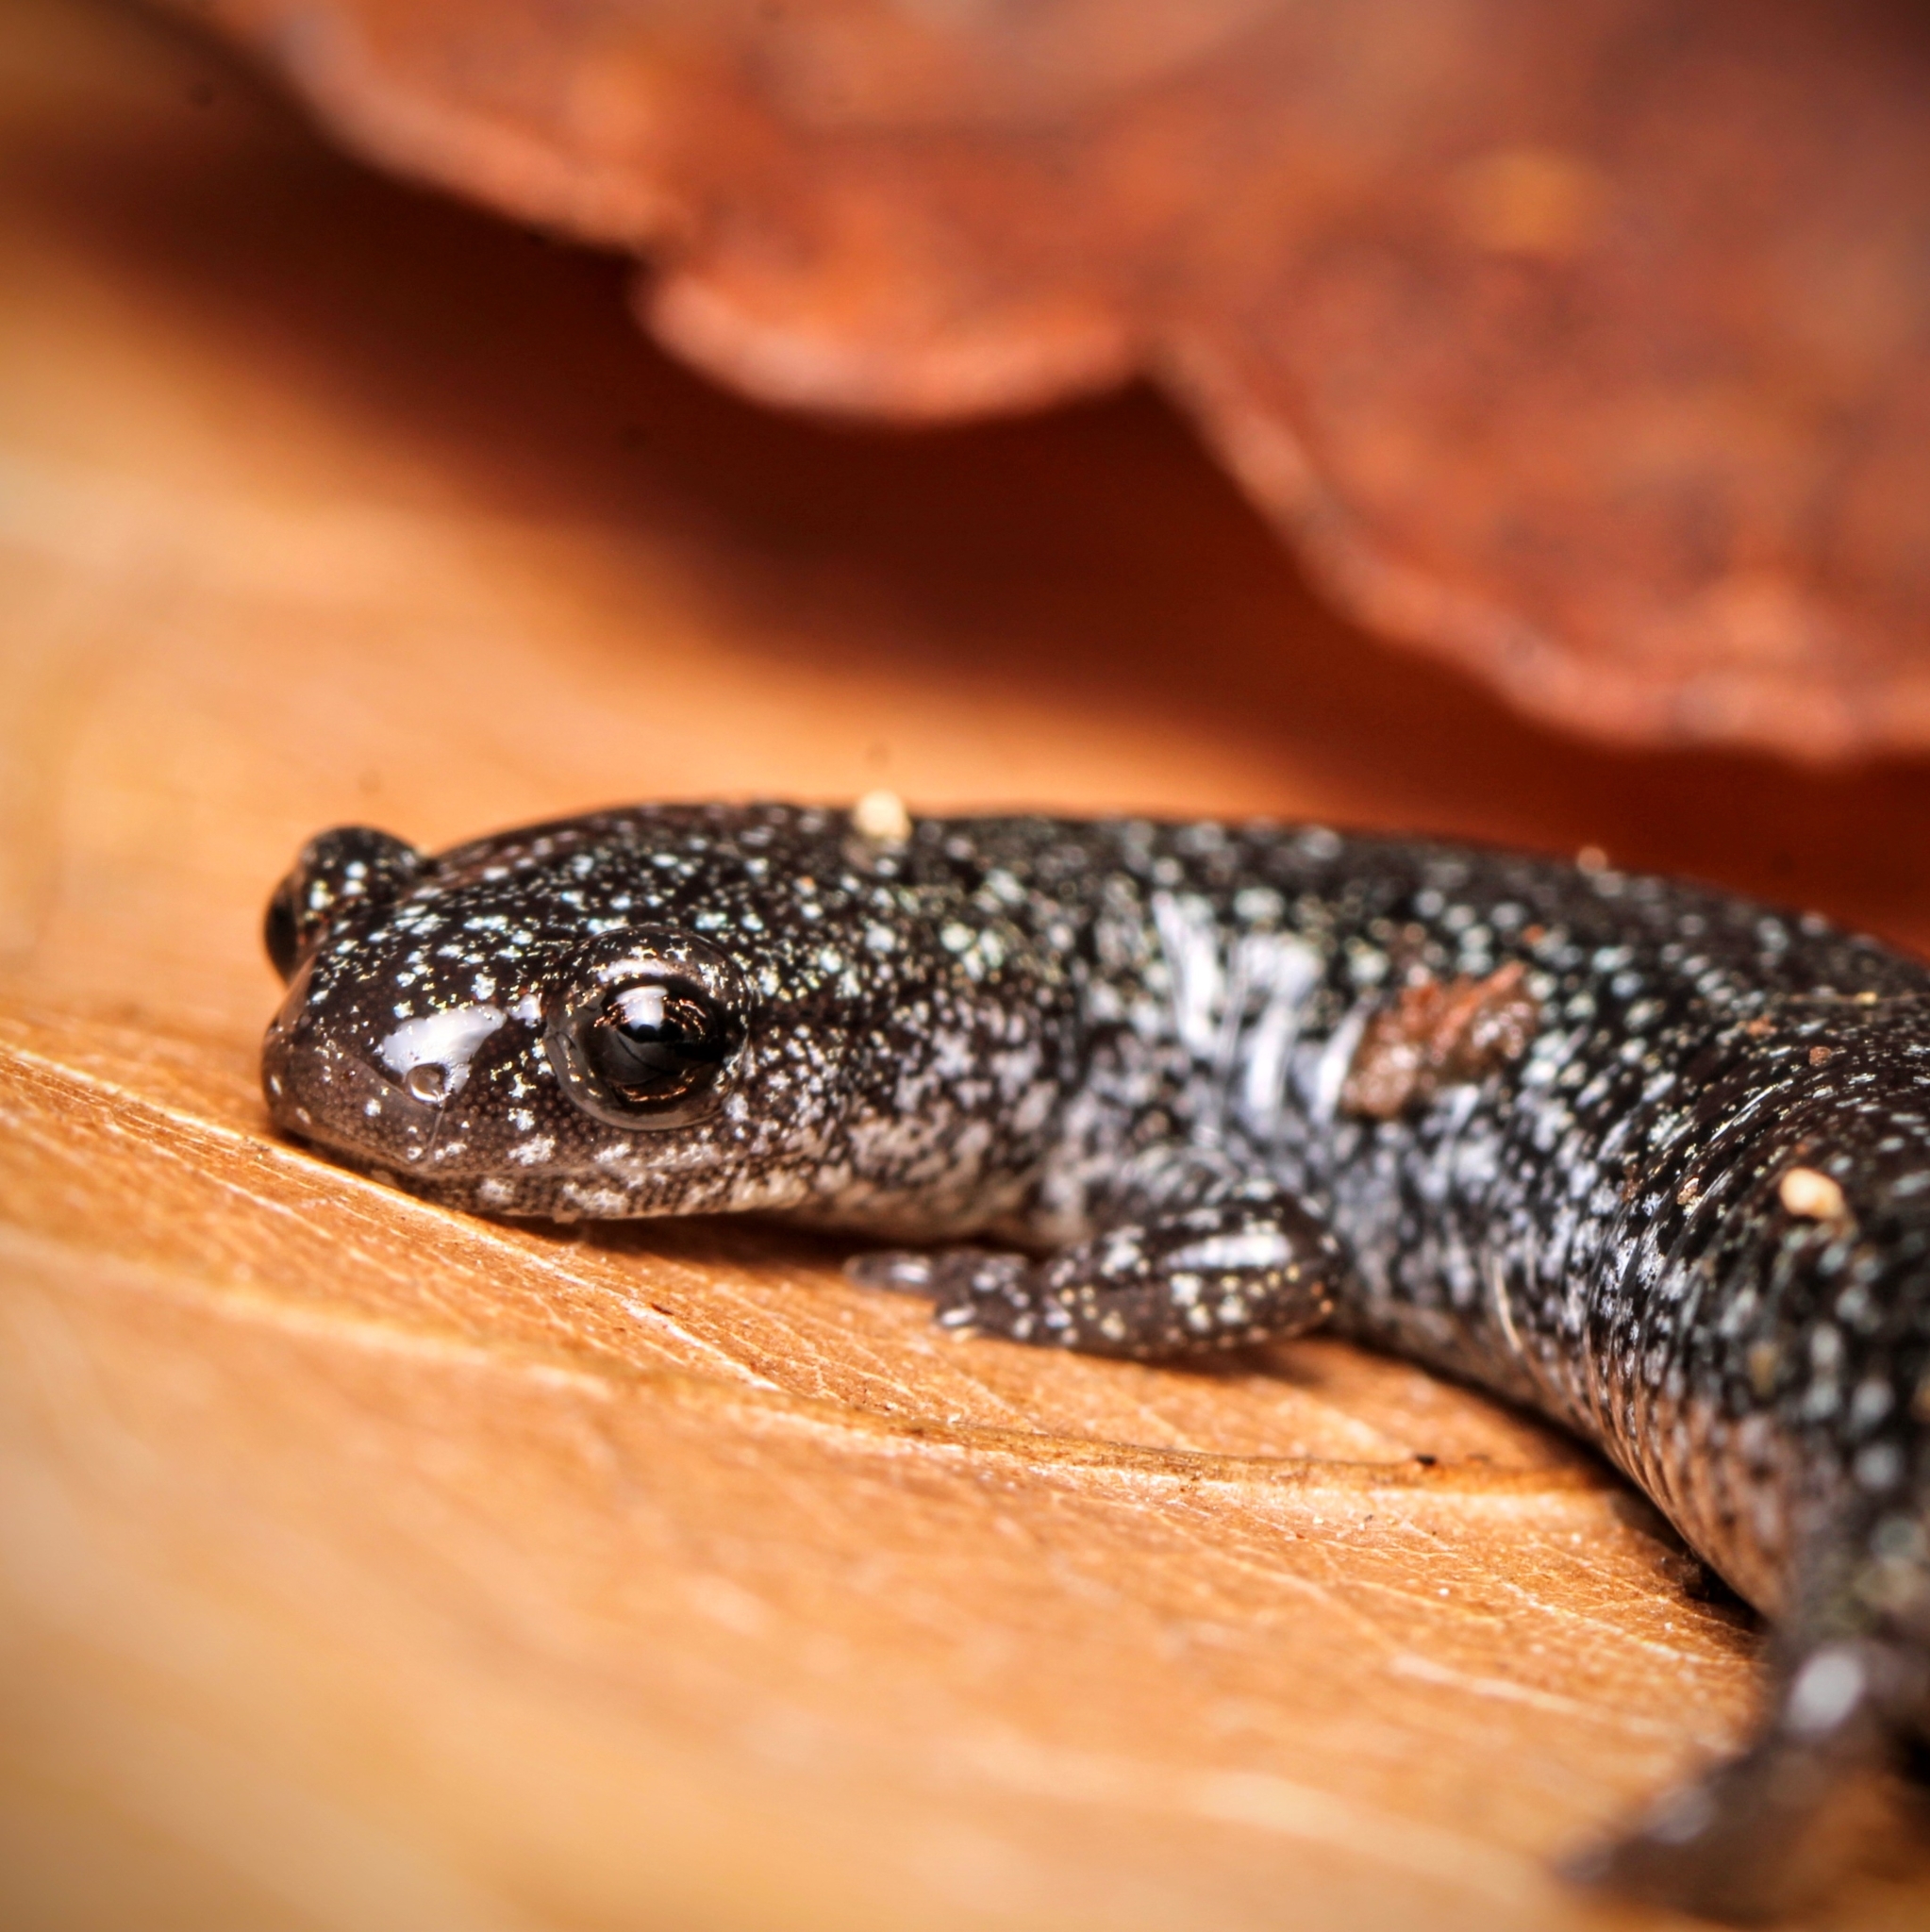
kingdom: Animalia
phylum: Chordata
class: Amphibia
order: Caudata
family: Plethodontidae
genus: Plethodon
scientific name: Plethodon cinereus
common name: Redback salamander
